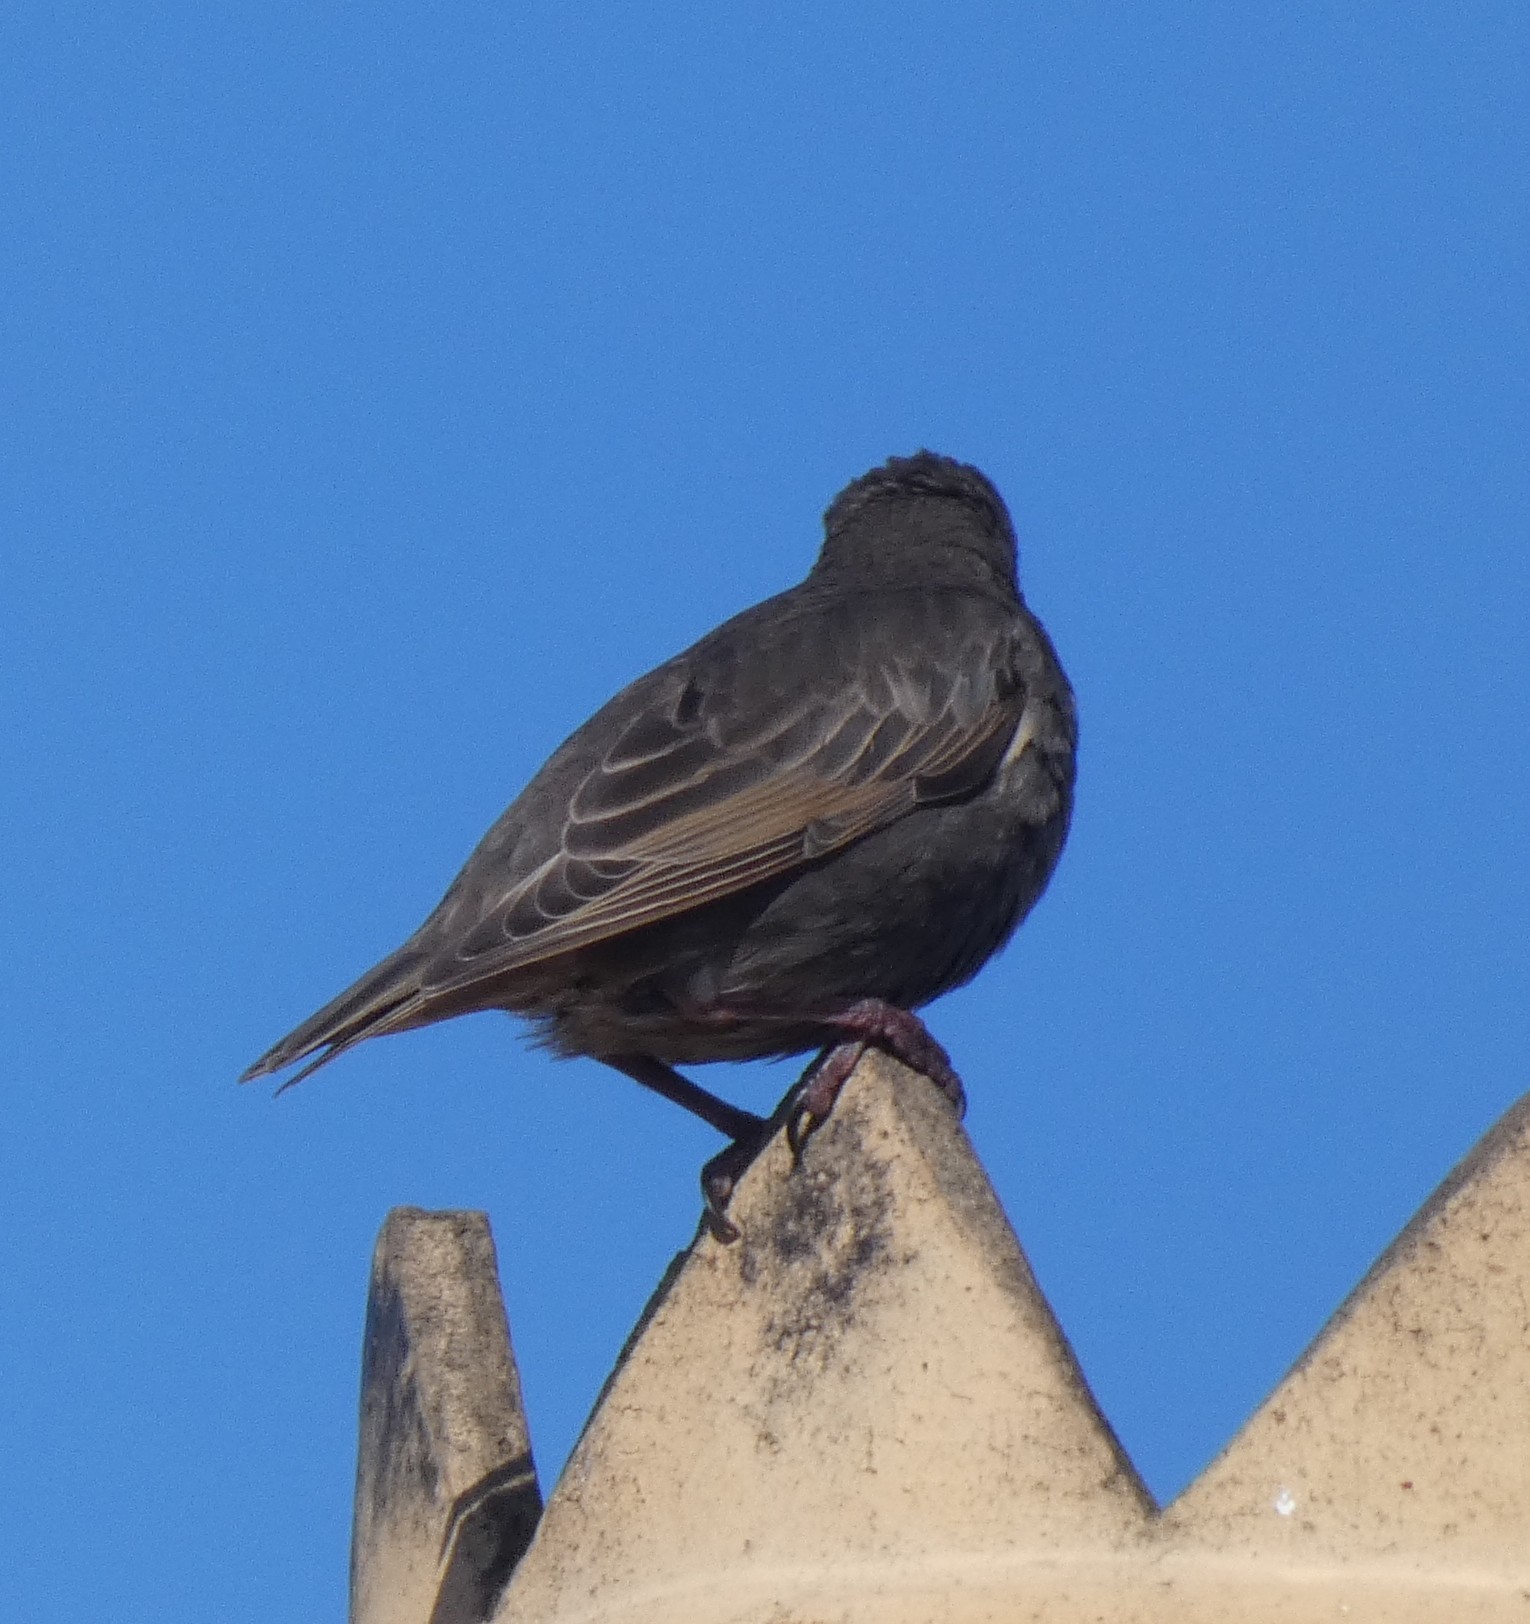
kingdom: Animalia
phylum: Chordata
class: Aves
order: Passeriformes
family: Sturnidae
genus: Sturnus
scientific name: Sturnus vulgaris
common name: Common starling
